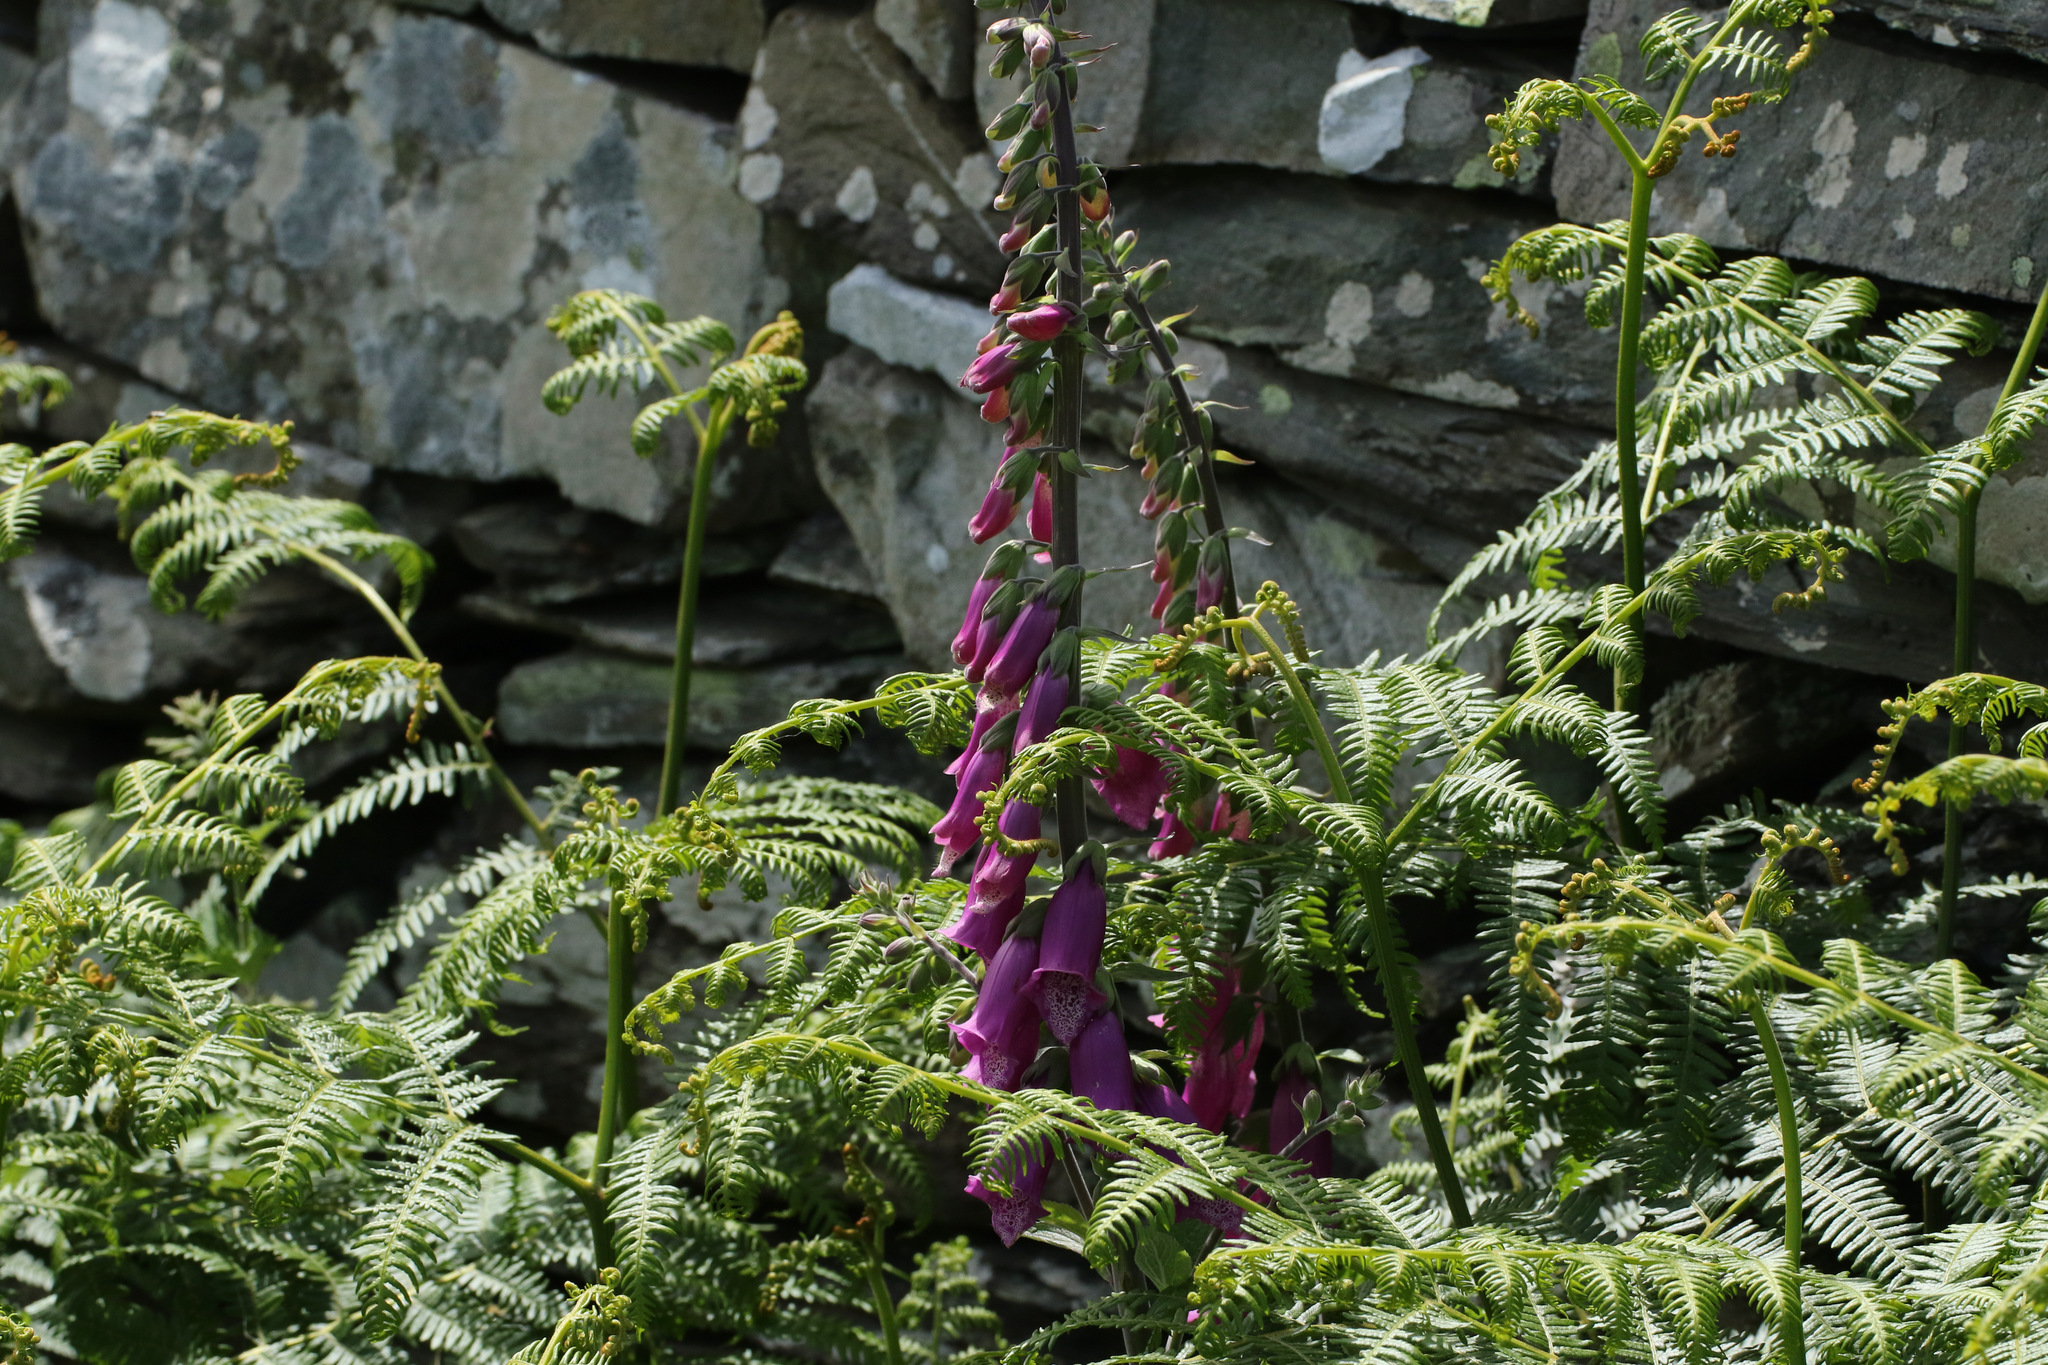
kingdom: Plantae
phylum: Tracheophyta
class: Magnoliopsida
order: Lamiales
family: Plantaginaceae
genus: Digitalis
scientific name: Digitalis purpurea
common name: Foxglove
